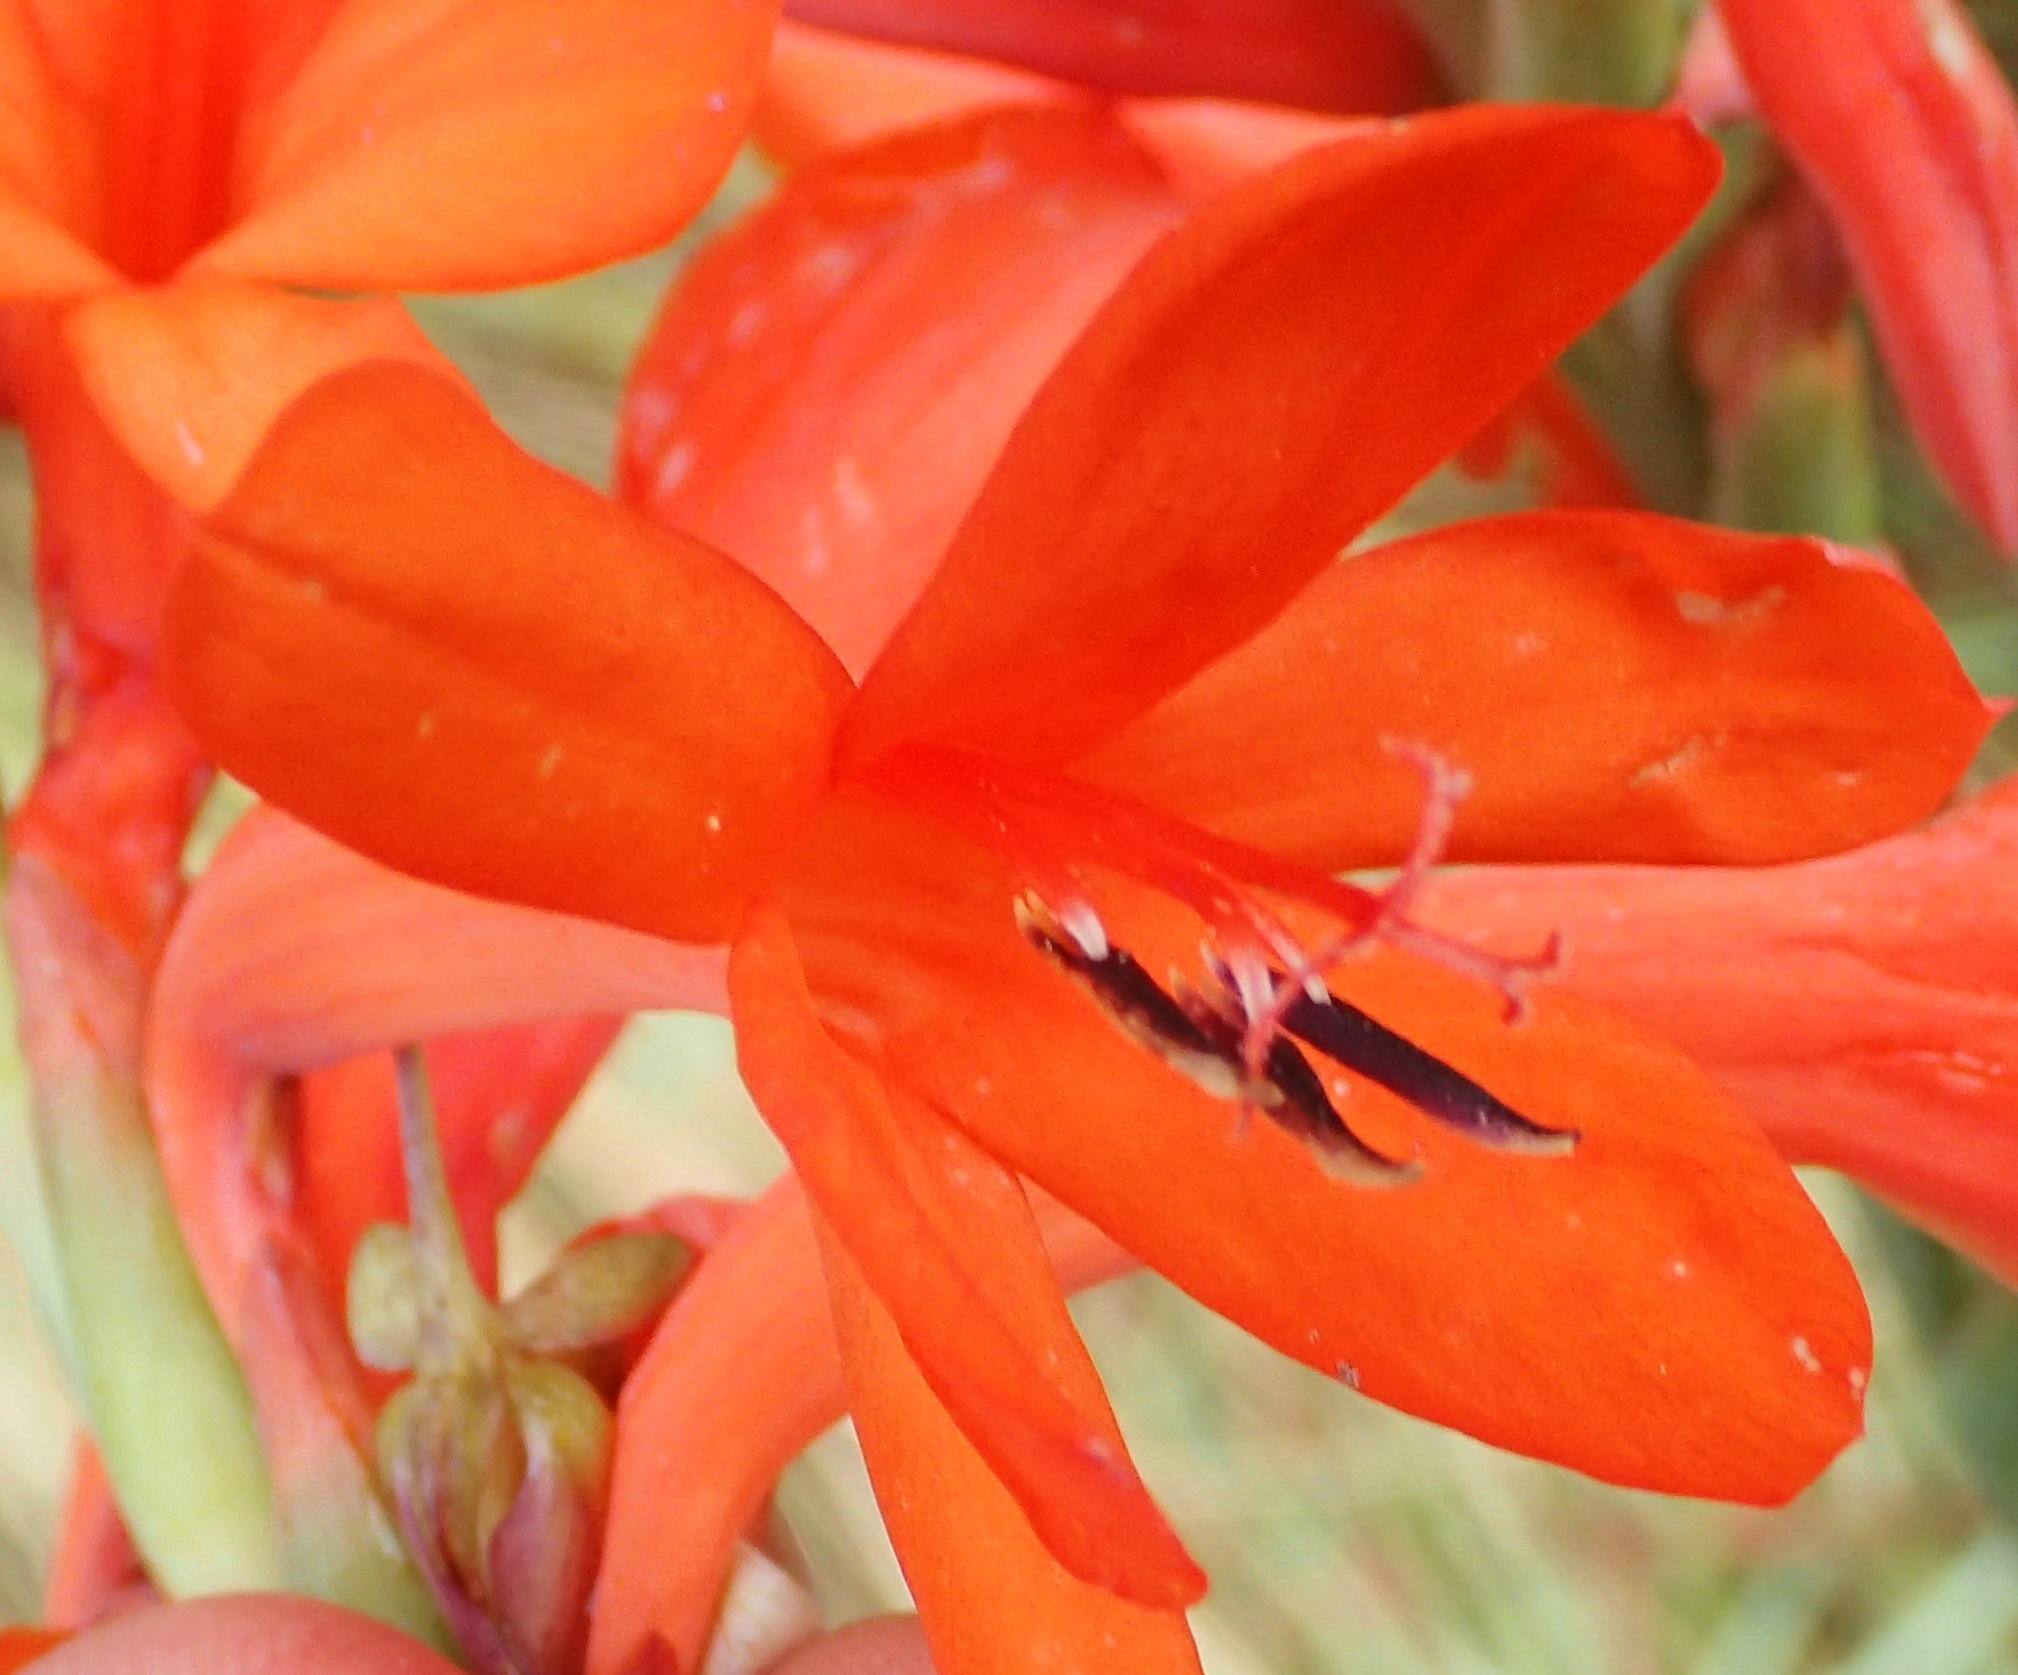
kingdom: Plantae
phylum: Tracheophyta
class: Liliopsida
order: Asparagales
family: Iridaceae
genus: Watsonia
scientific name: Watsonia schlechteri
